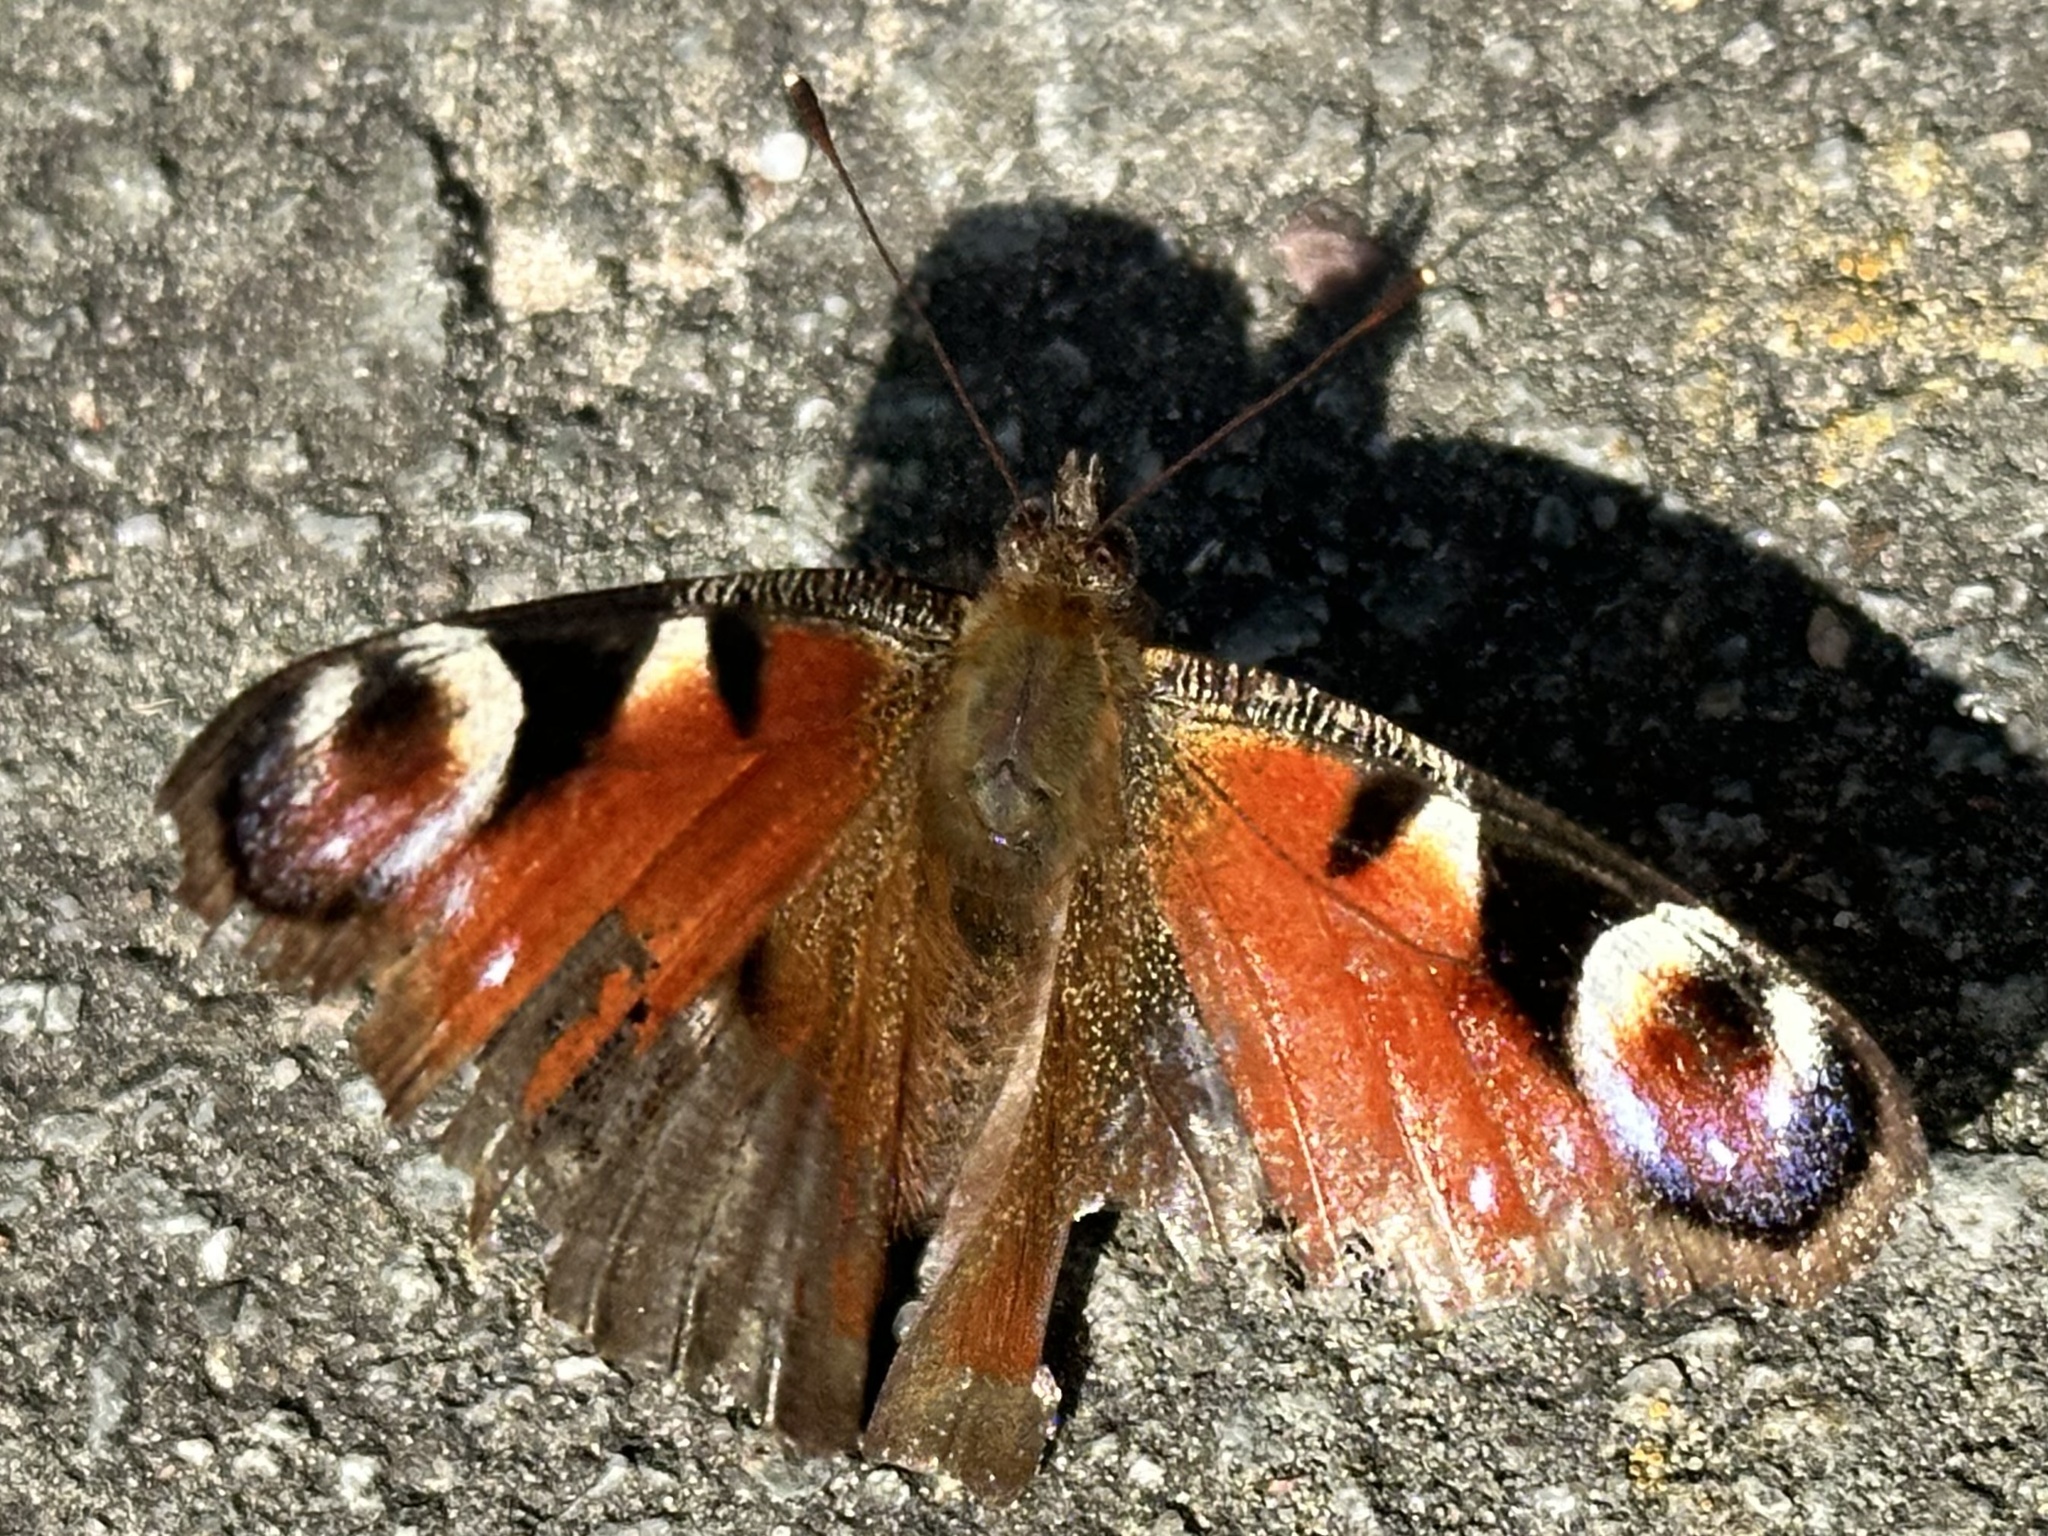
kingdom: Animalia
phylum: Arthropoda
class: Insecta
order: Lepidoptera
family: Nymphalidae
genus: Aglais
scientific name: Aglais io
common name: Peacock
